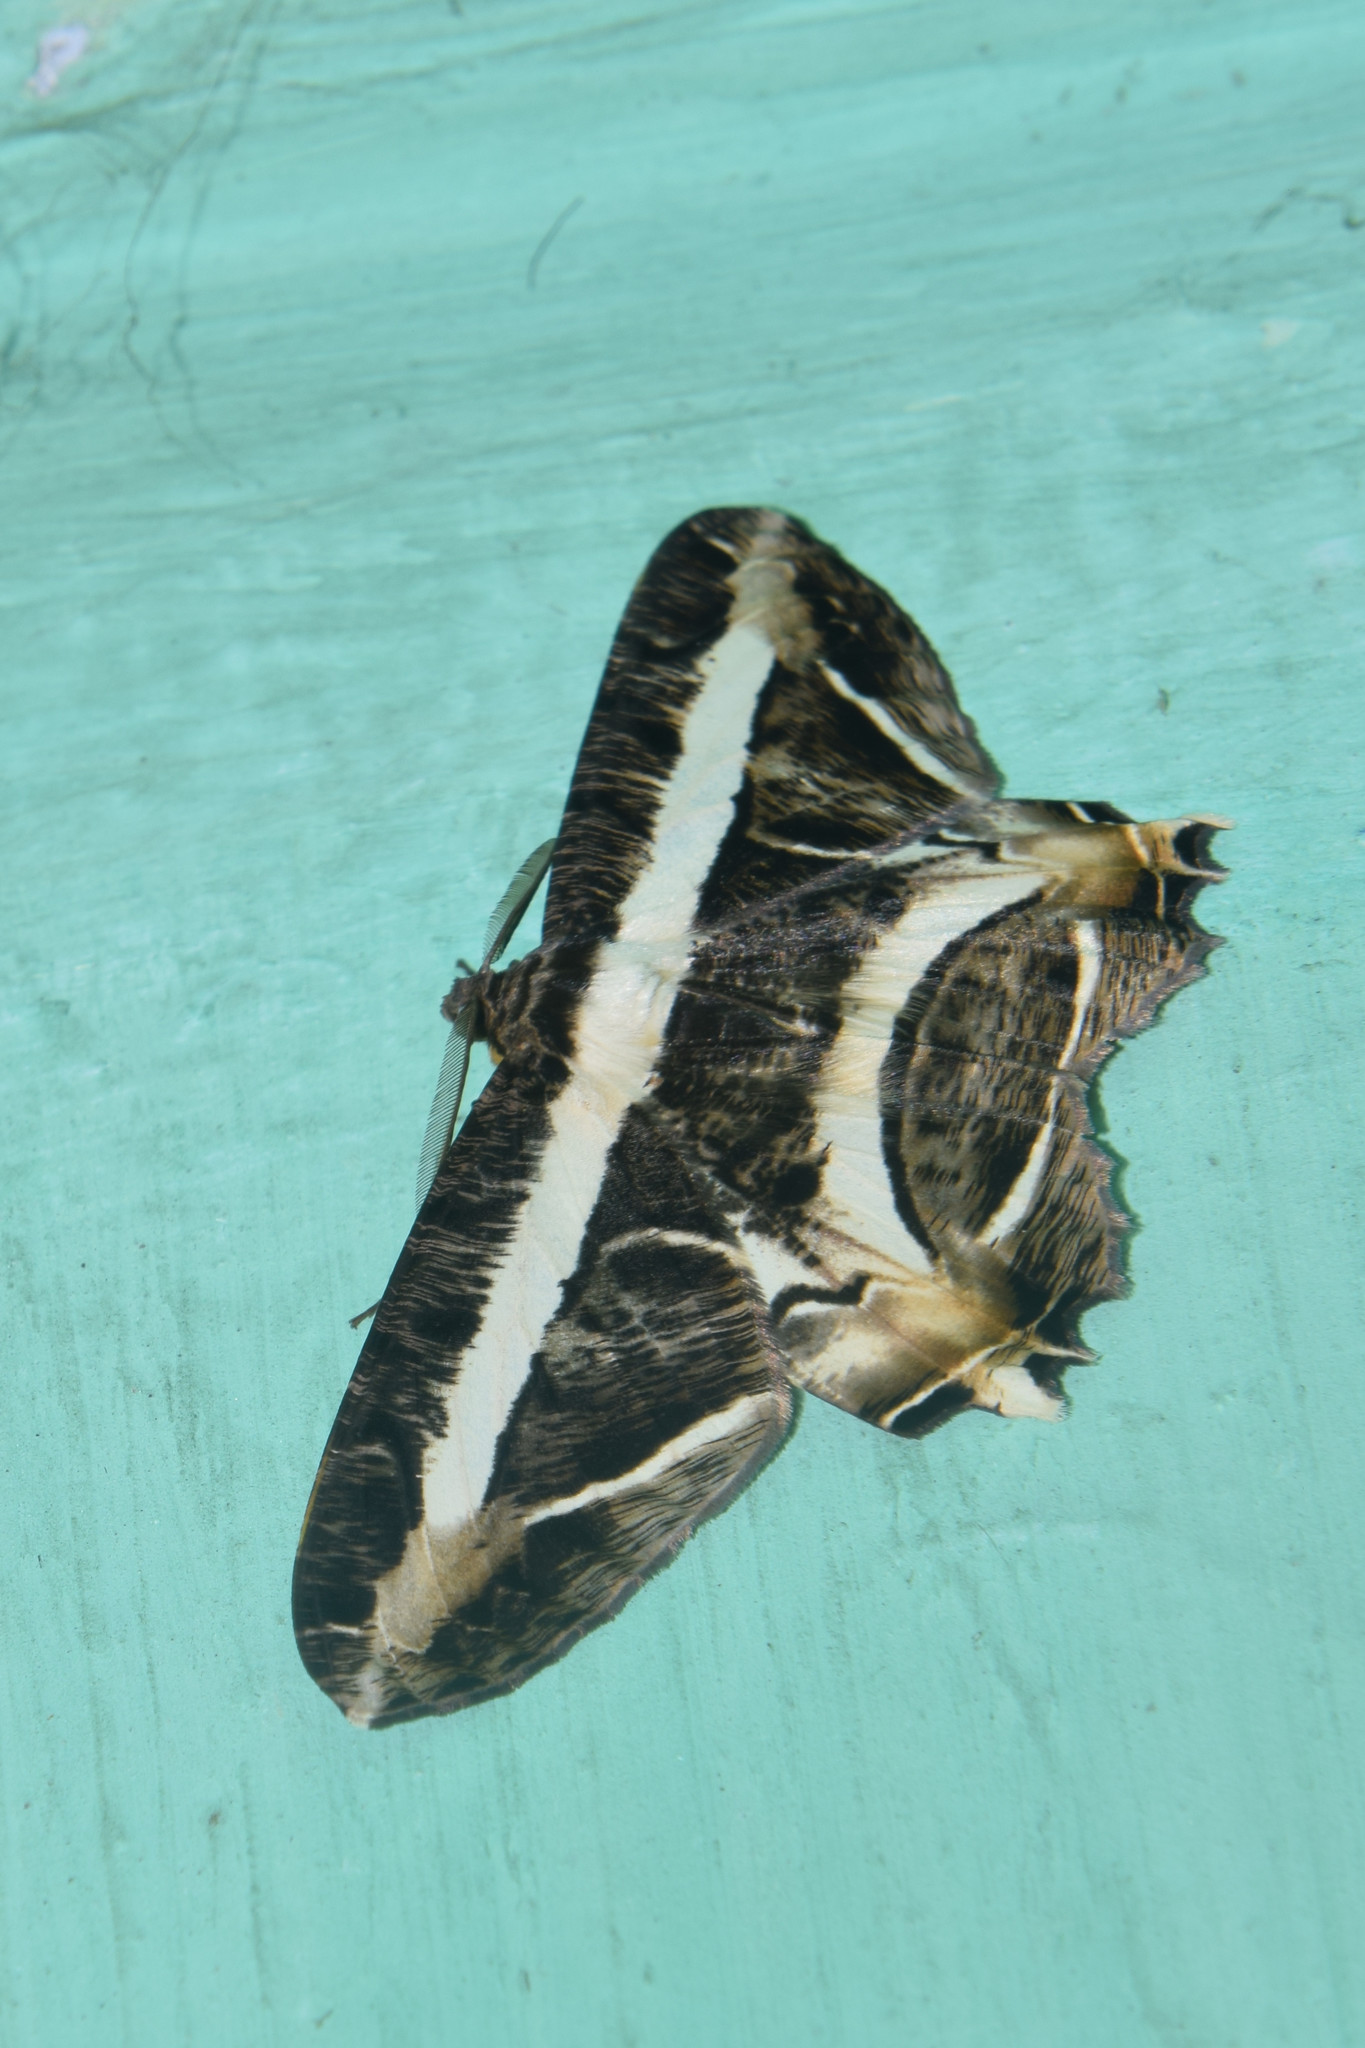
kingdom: Animalia
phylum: Arthropoda
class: Insecta
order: Lepidoptera
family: Geometridae
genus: Chorodna
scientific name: Chorodna fulgurita
